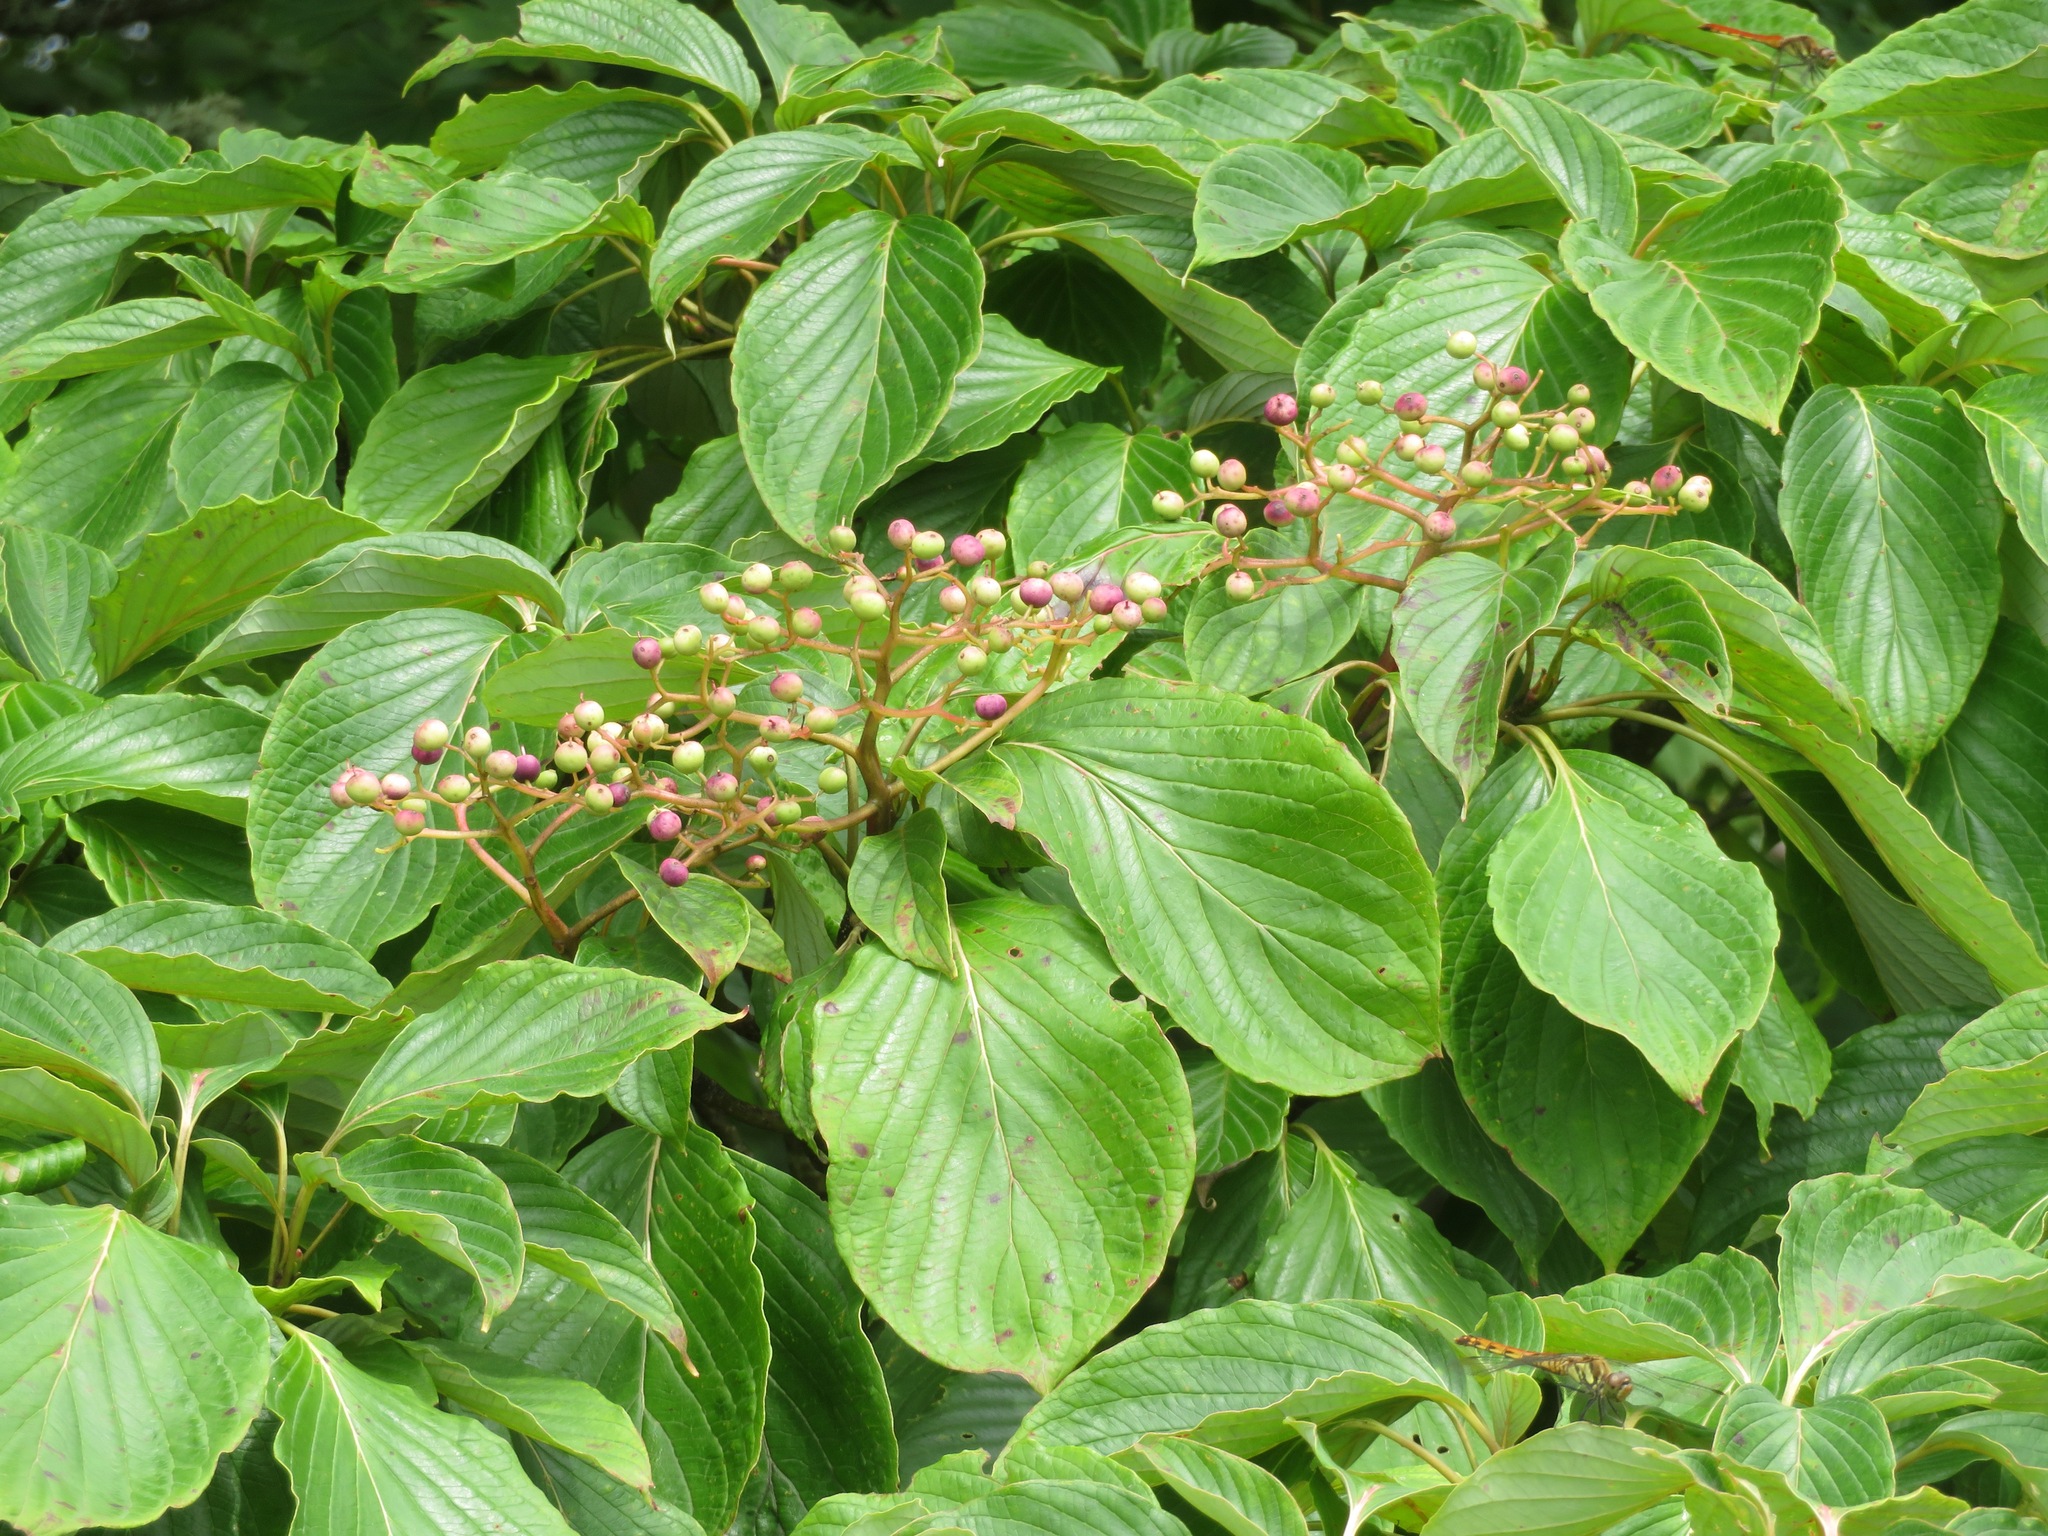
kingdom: Plantae
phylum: Tracheophyta
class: Magnoliopsida
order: Cornales
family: Cornaceae
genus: Cornus
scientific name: Cornus controversa
